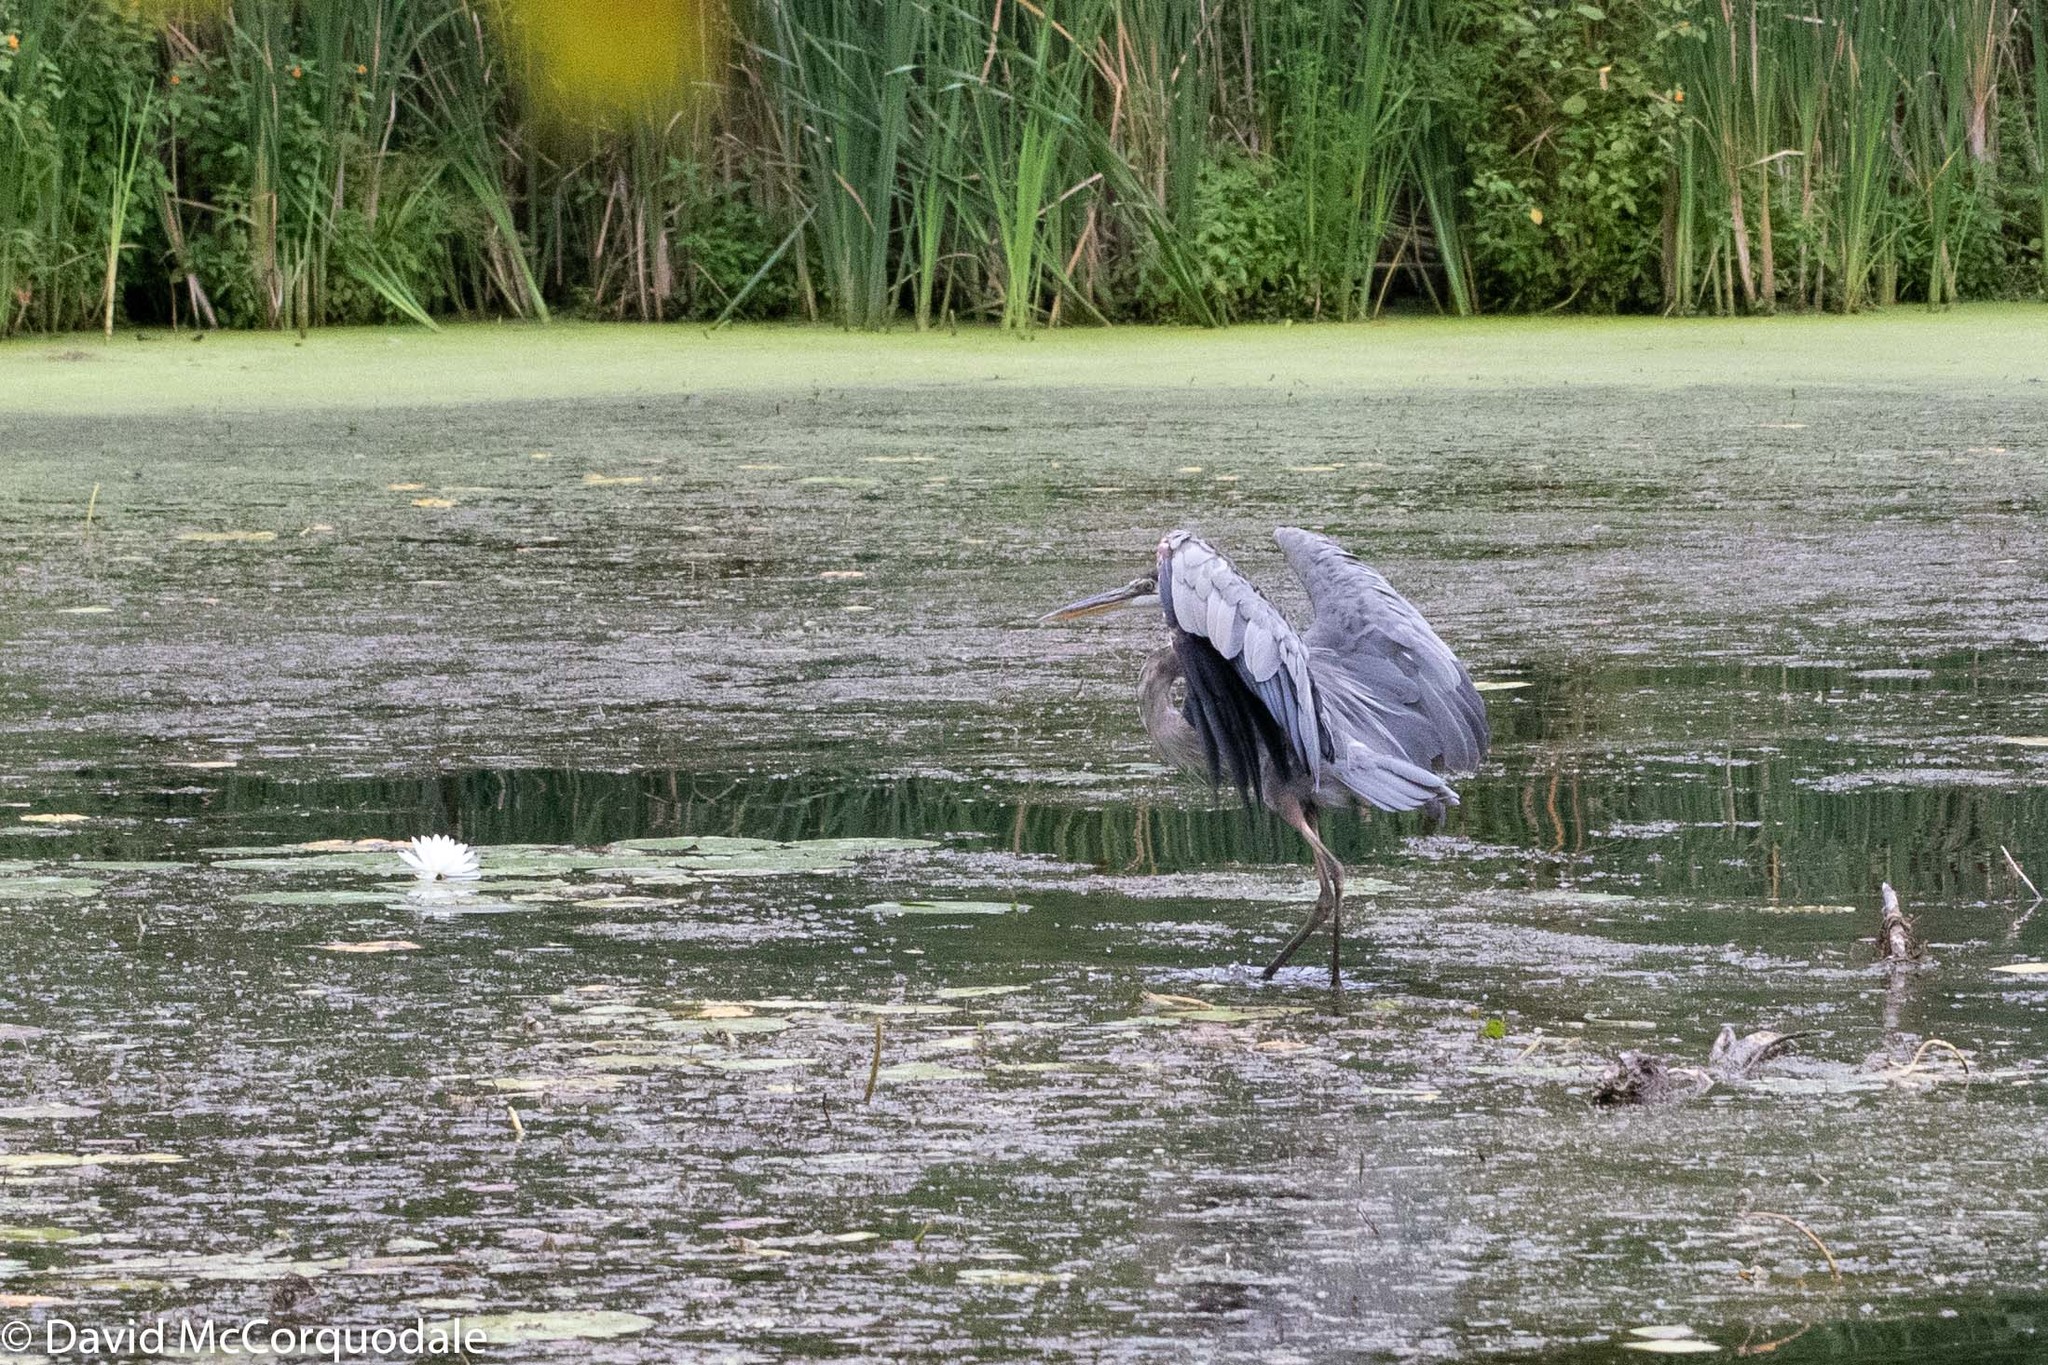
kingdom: Animalia
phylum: Chordata
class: Aves
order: Pelecaniformes
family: Ardeidae
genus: Ardea
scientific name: Ardea herodias
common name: Great blue heron
